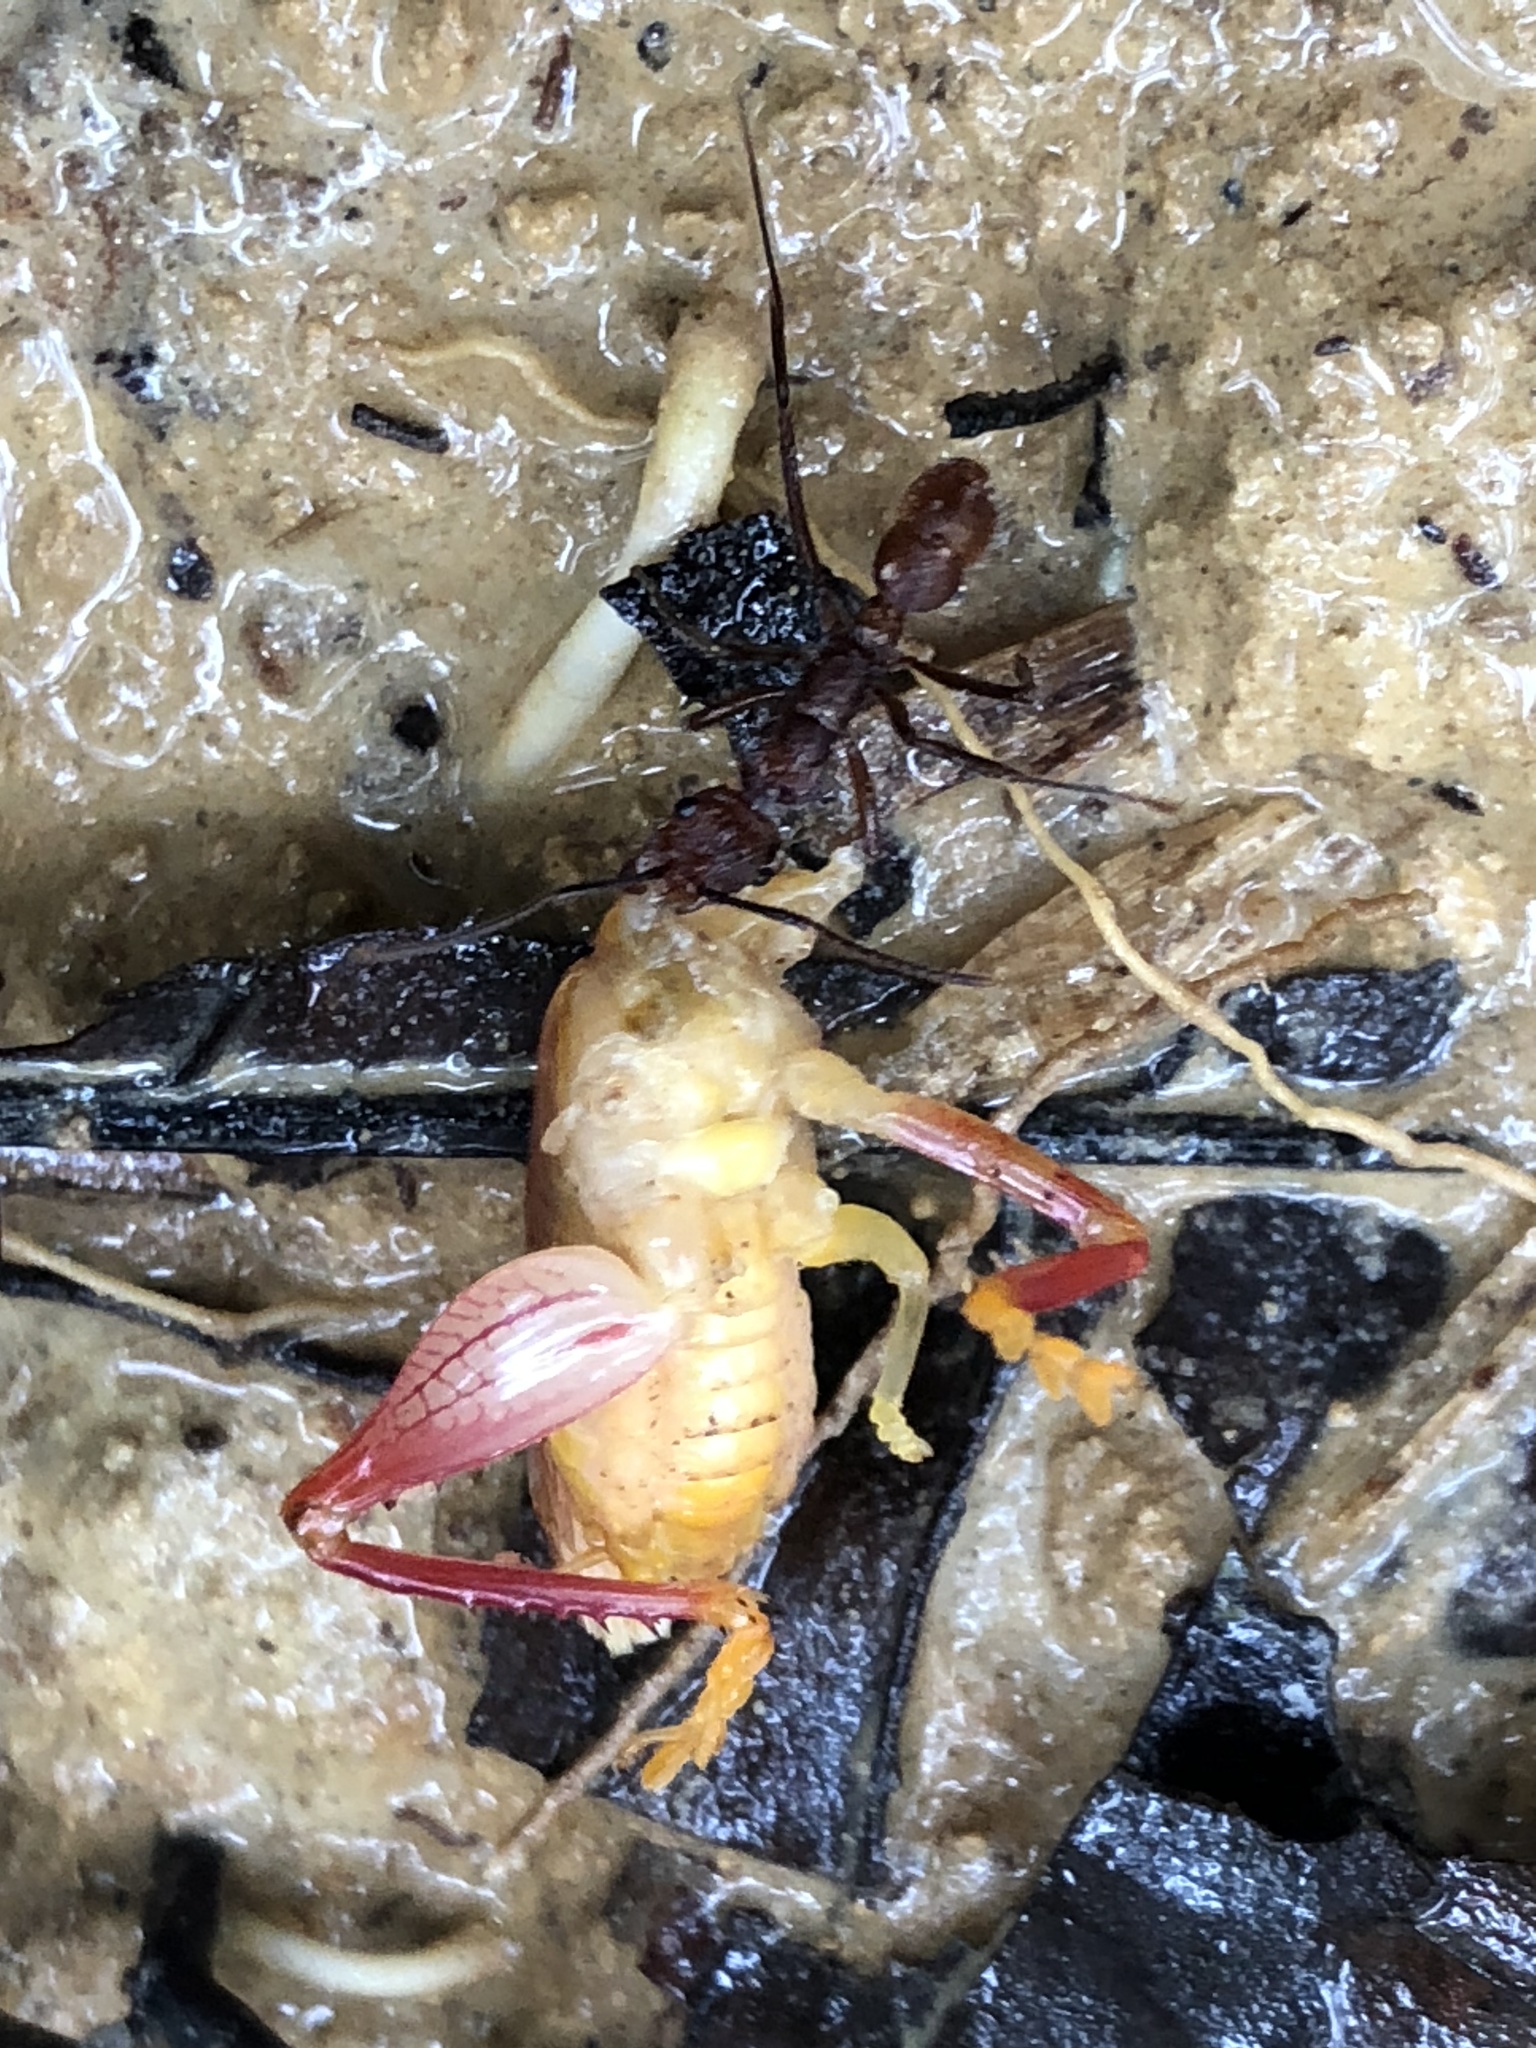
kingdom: Animalia
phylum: Arthropoda
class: Insecta
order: Hymenoptera
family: Formicidae
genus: Ectatomma
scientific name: Ectatomma tuberculatum
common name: Ant
